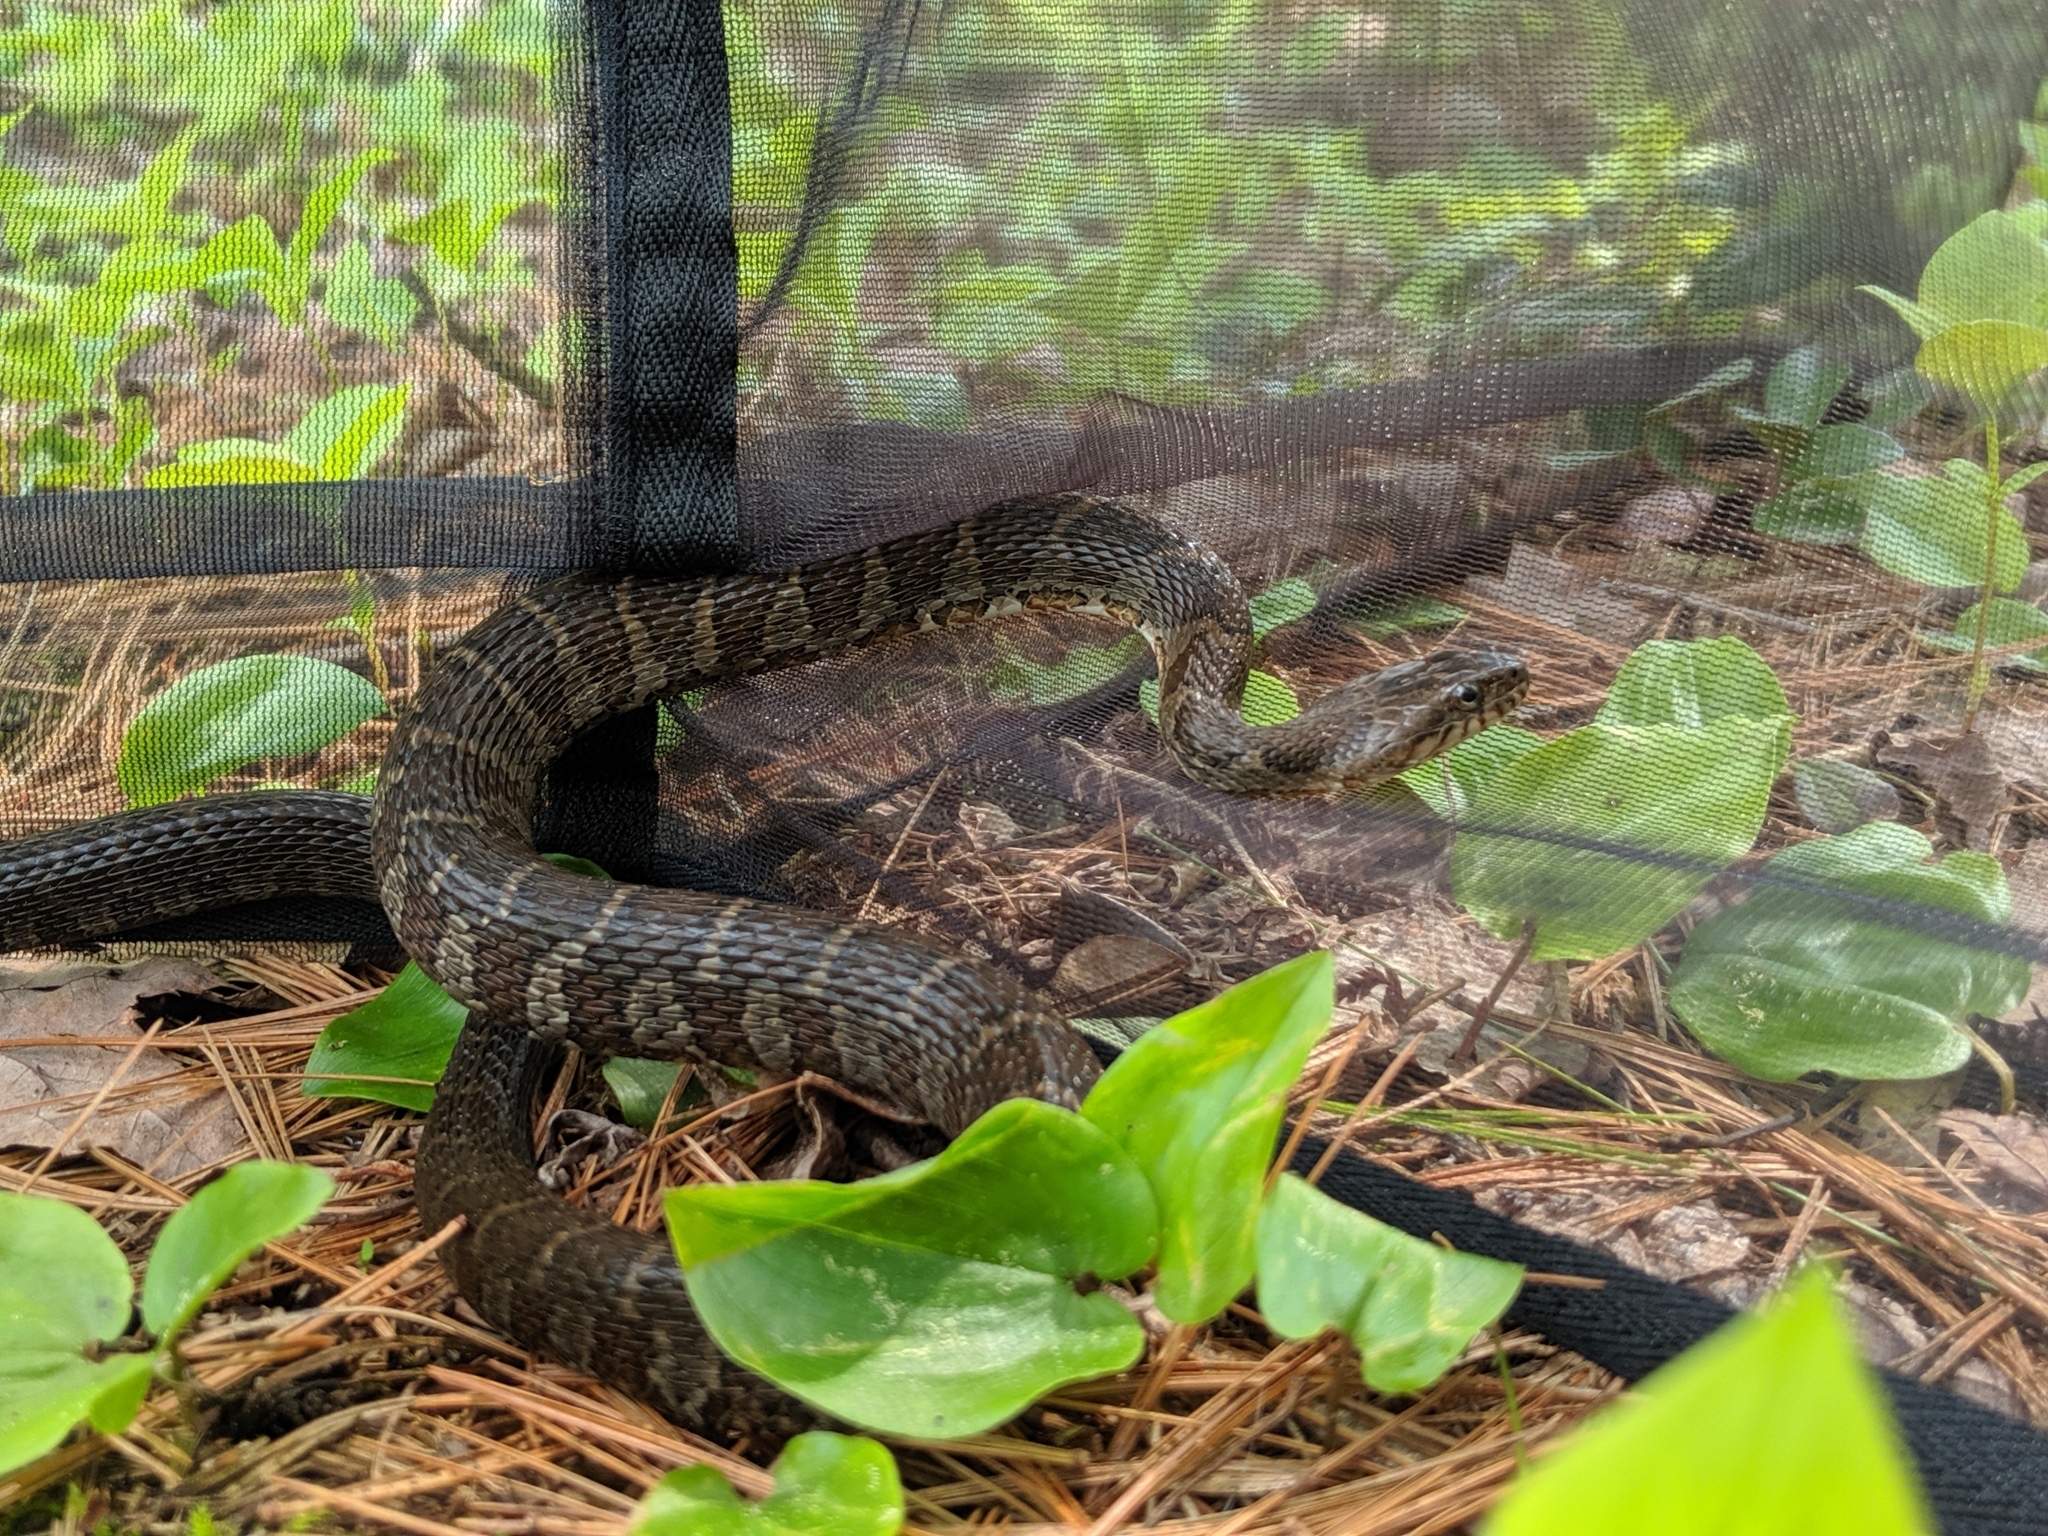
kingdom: Animalia
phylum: Chordata
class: Squamata
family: Colubridae
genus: Nerodia
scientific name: Nerodia sipedon
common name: Northern water snake
